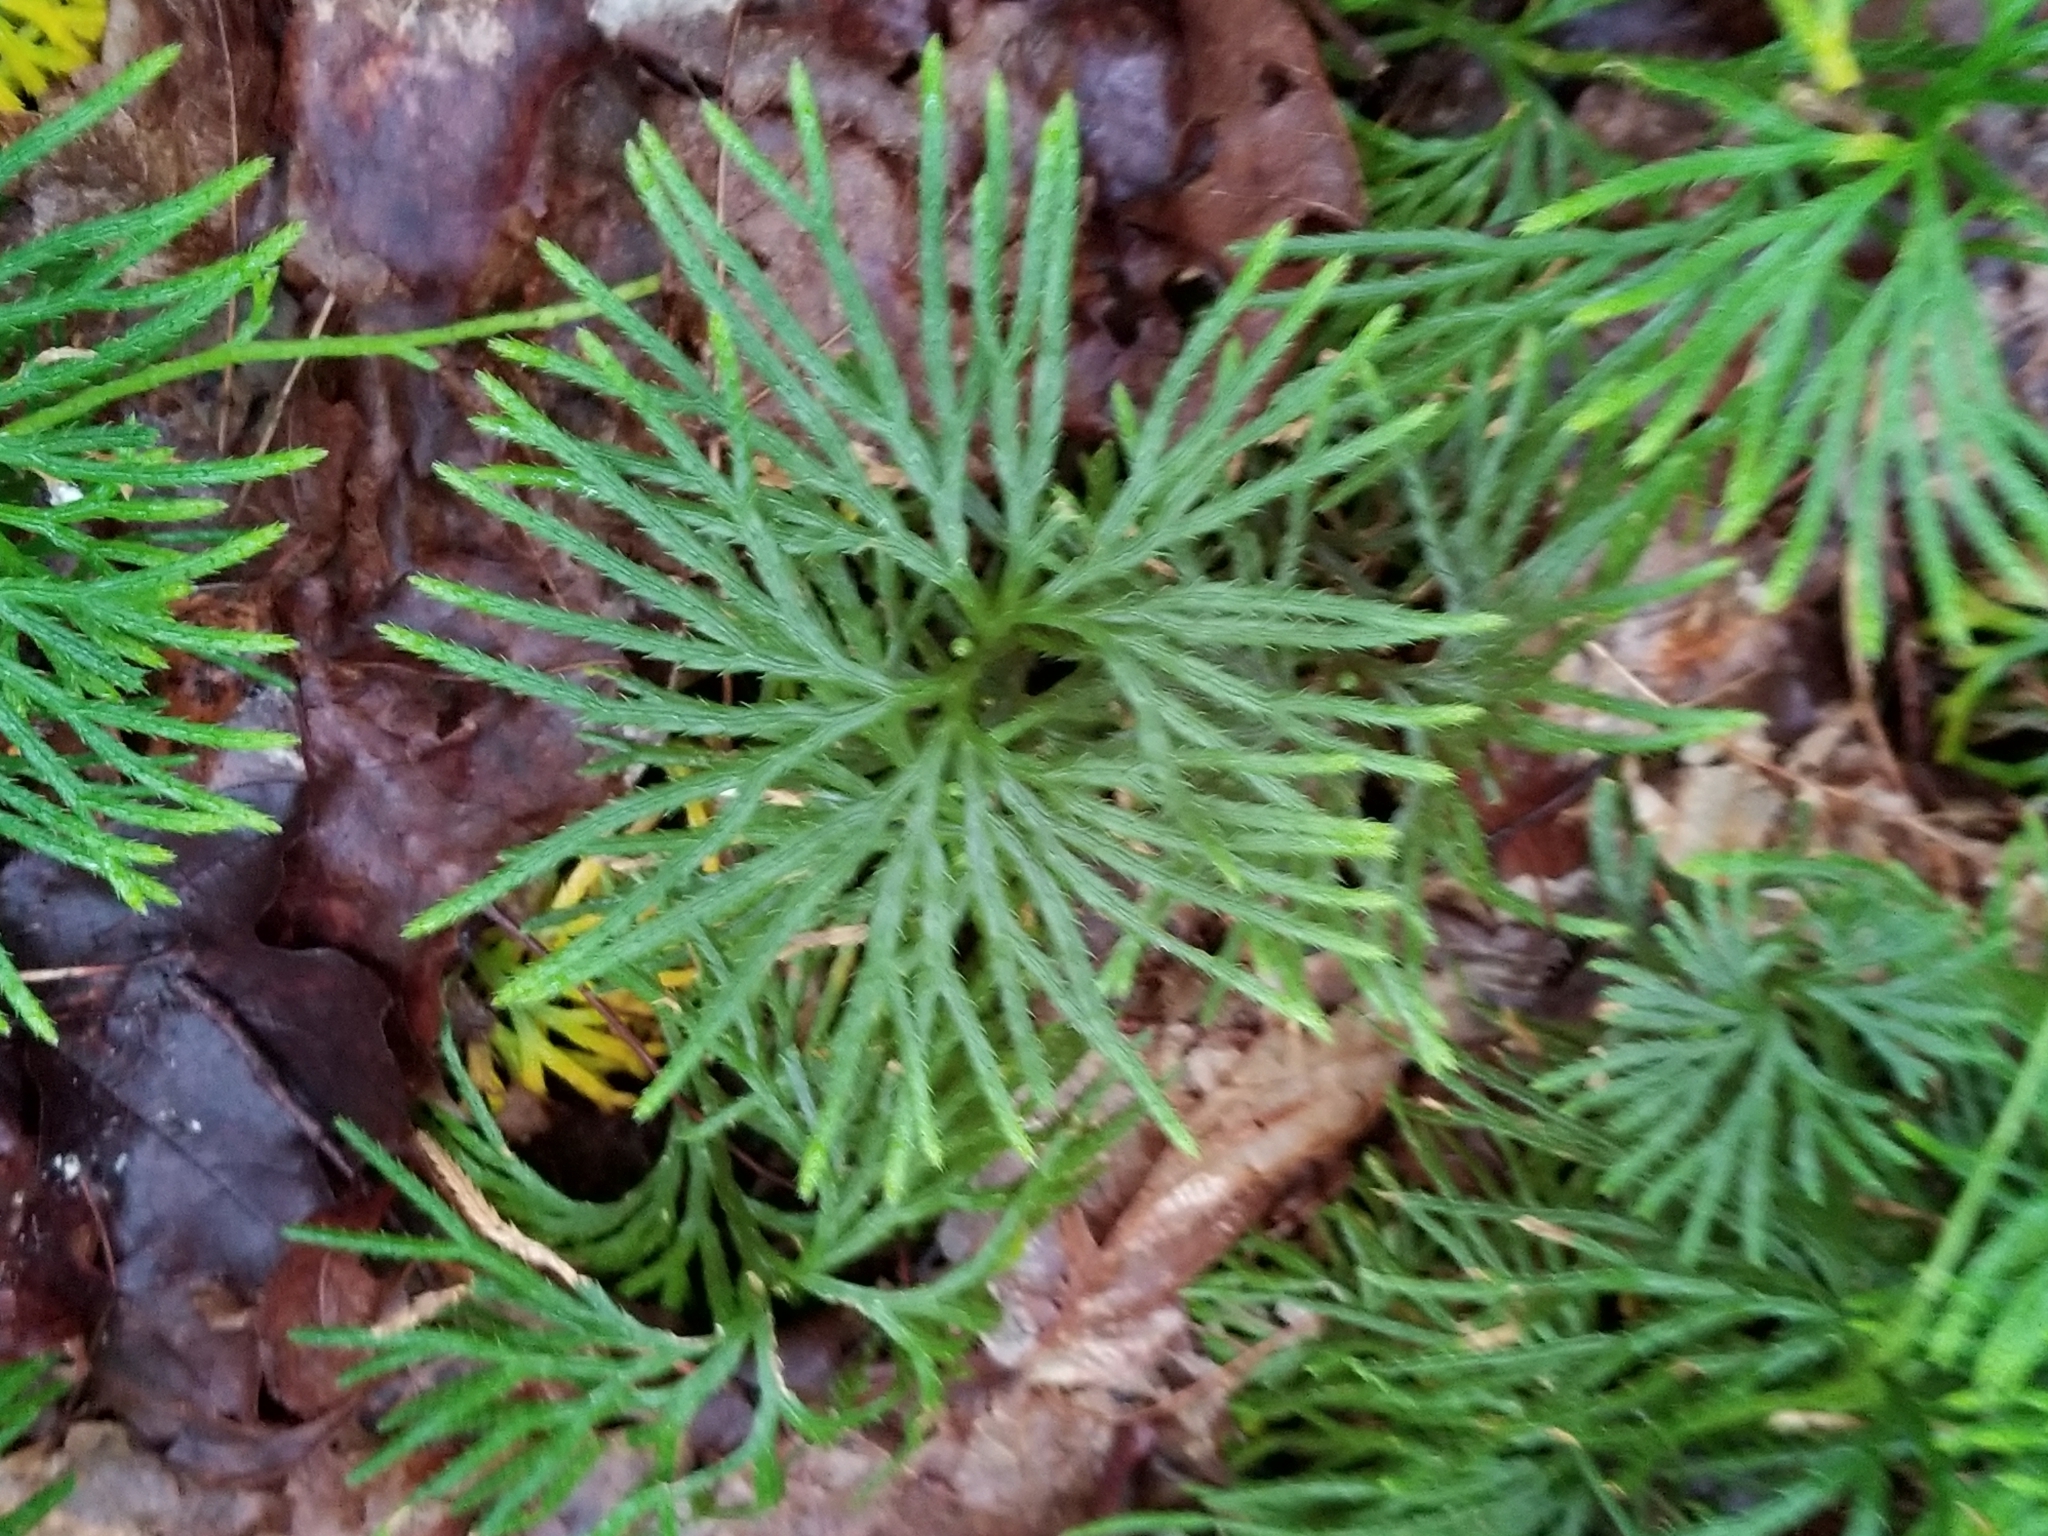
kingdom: Plantae
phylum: Tracheophyta
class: Lycopodiopsida
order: Lycopodiales
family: Lycopodiaceae
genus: Diphasiastrum
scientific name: Diphasiastrum digitatum
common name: Southern running-pine
